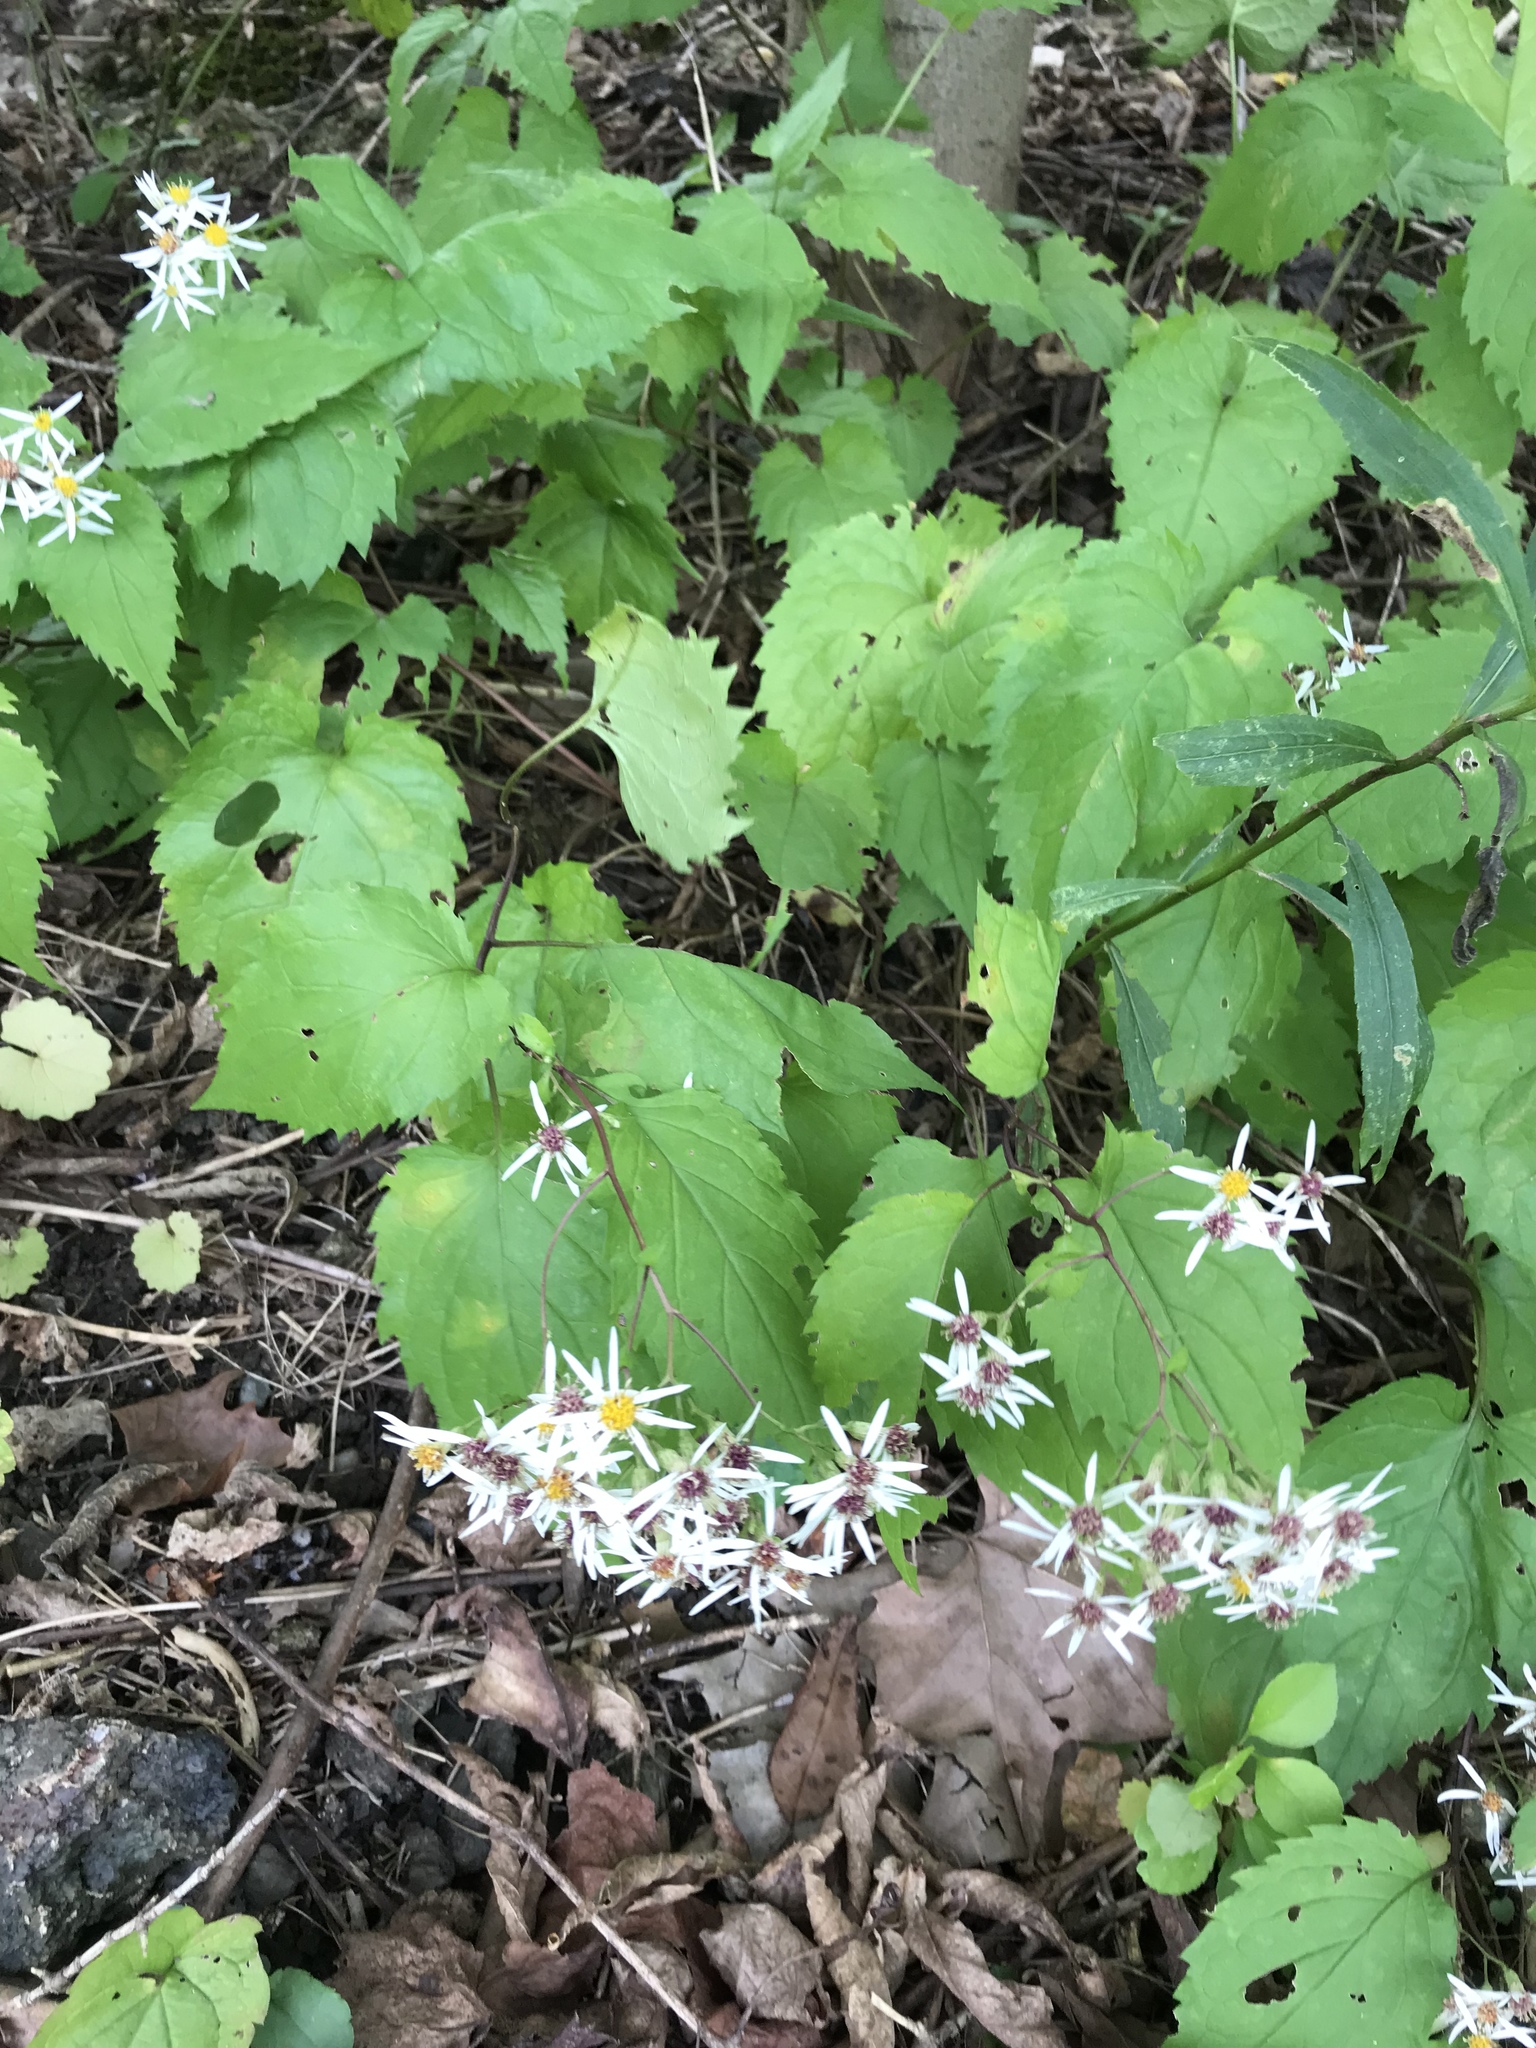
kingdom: Plantae
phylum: Tracheophyta
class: Magnoliopsida
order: Asterales
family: Asteraceae
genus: Eurybia
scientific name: Eurybia divaricata
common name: White wood aster
